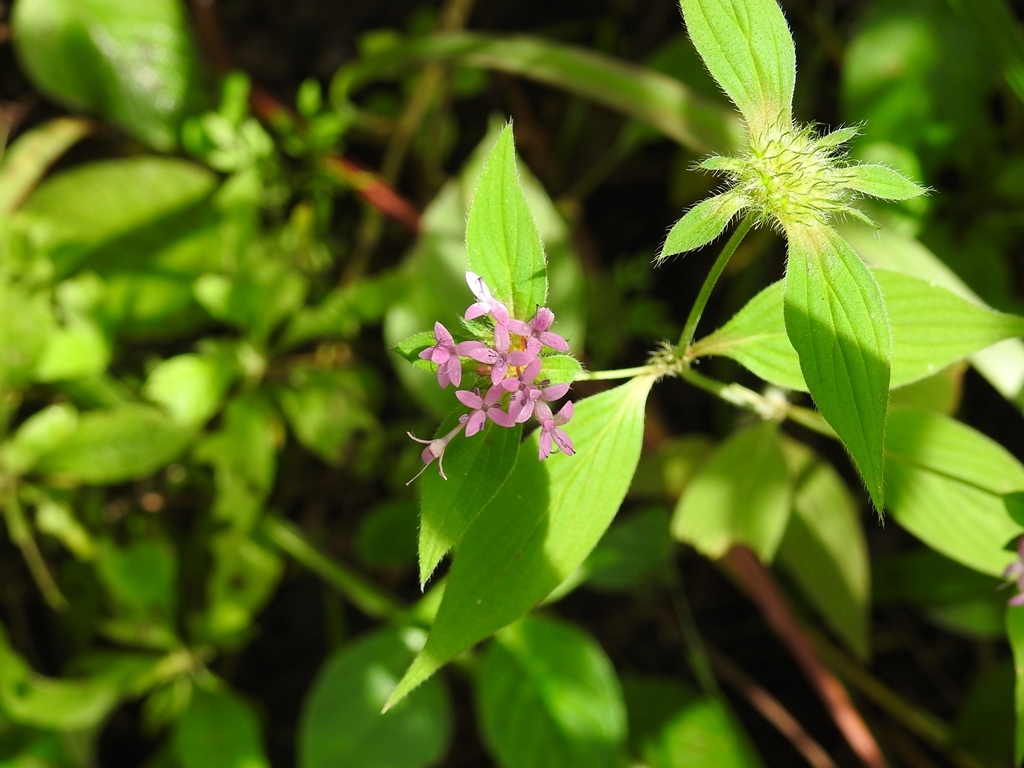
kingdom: Plantae
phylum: Tracheophyta
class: Magnoliopsida
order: Gentianales
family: Rubiaceae
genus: Crusea
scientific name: Crusea hispida
